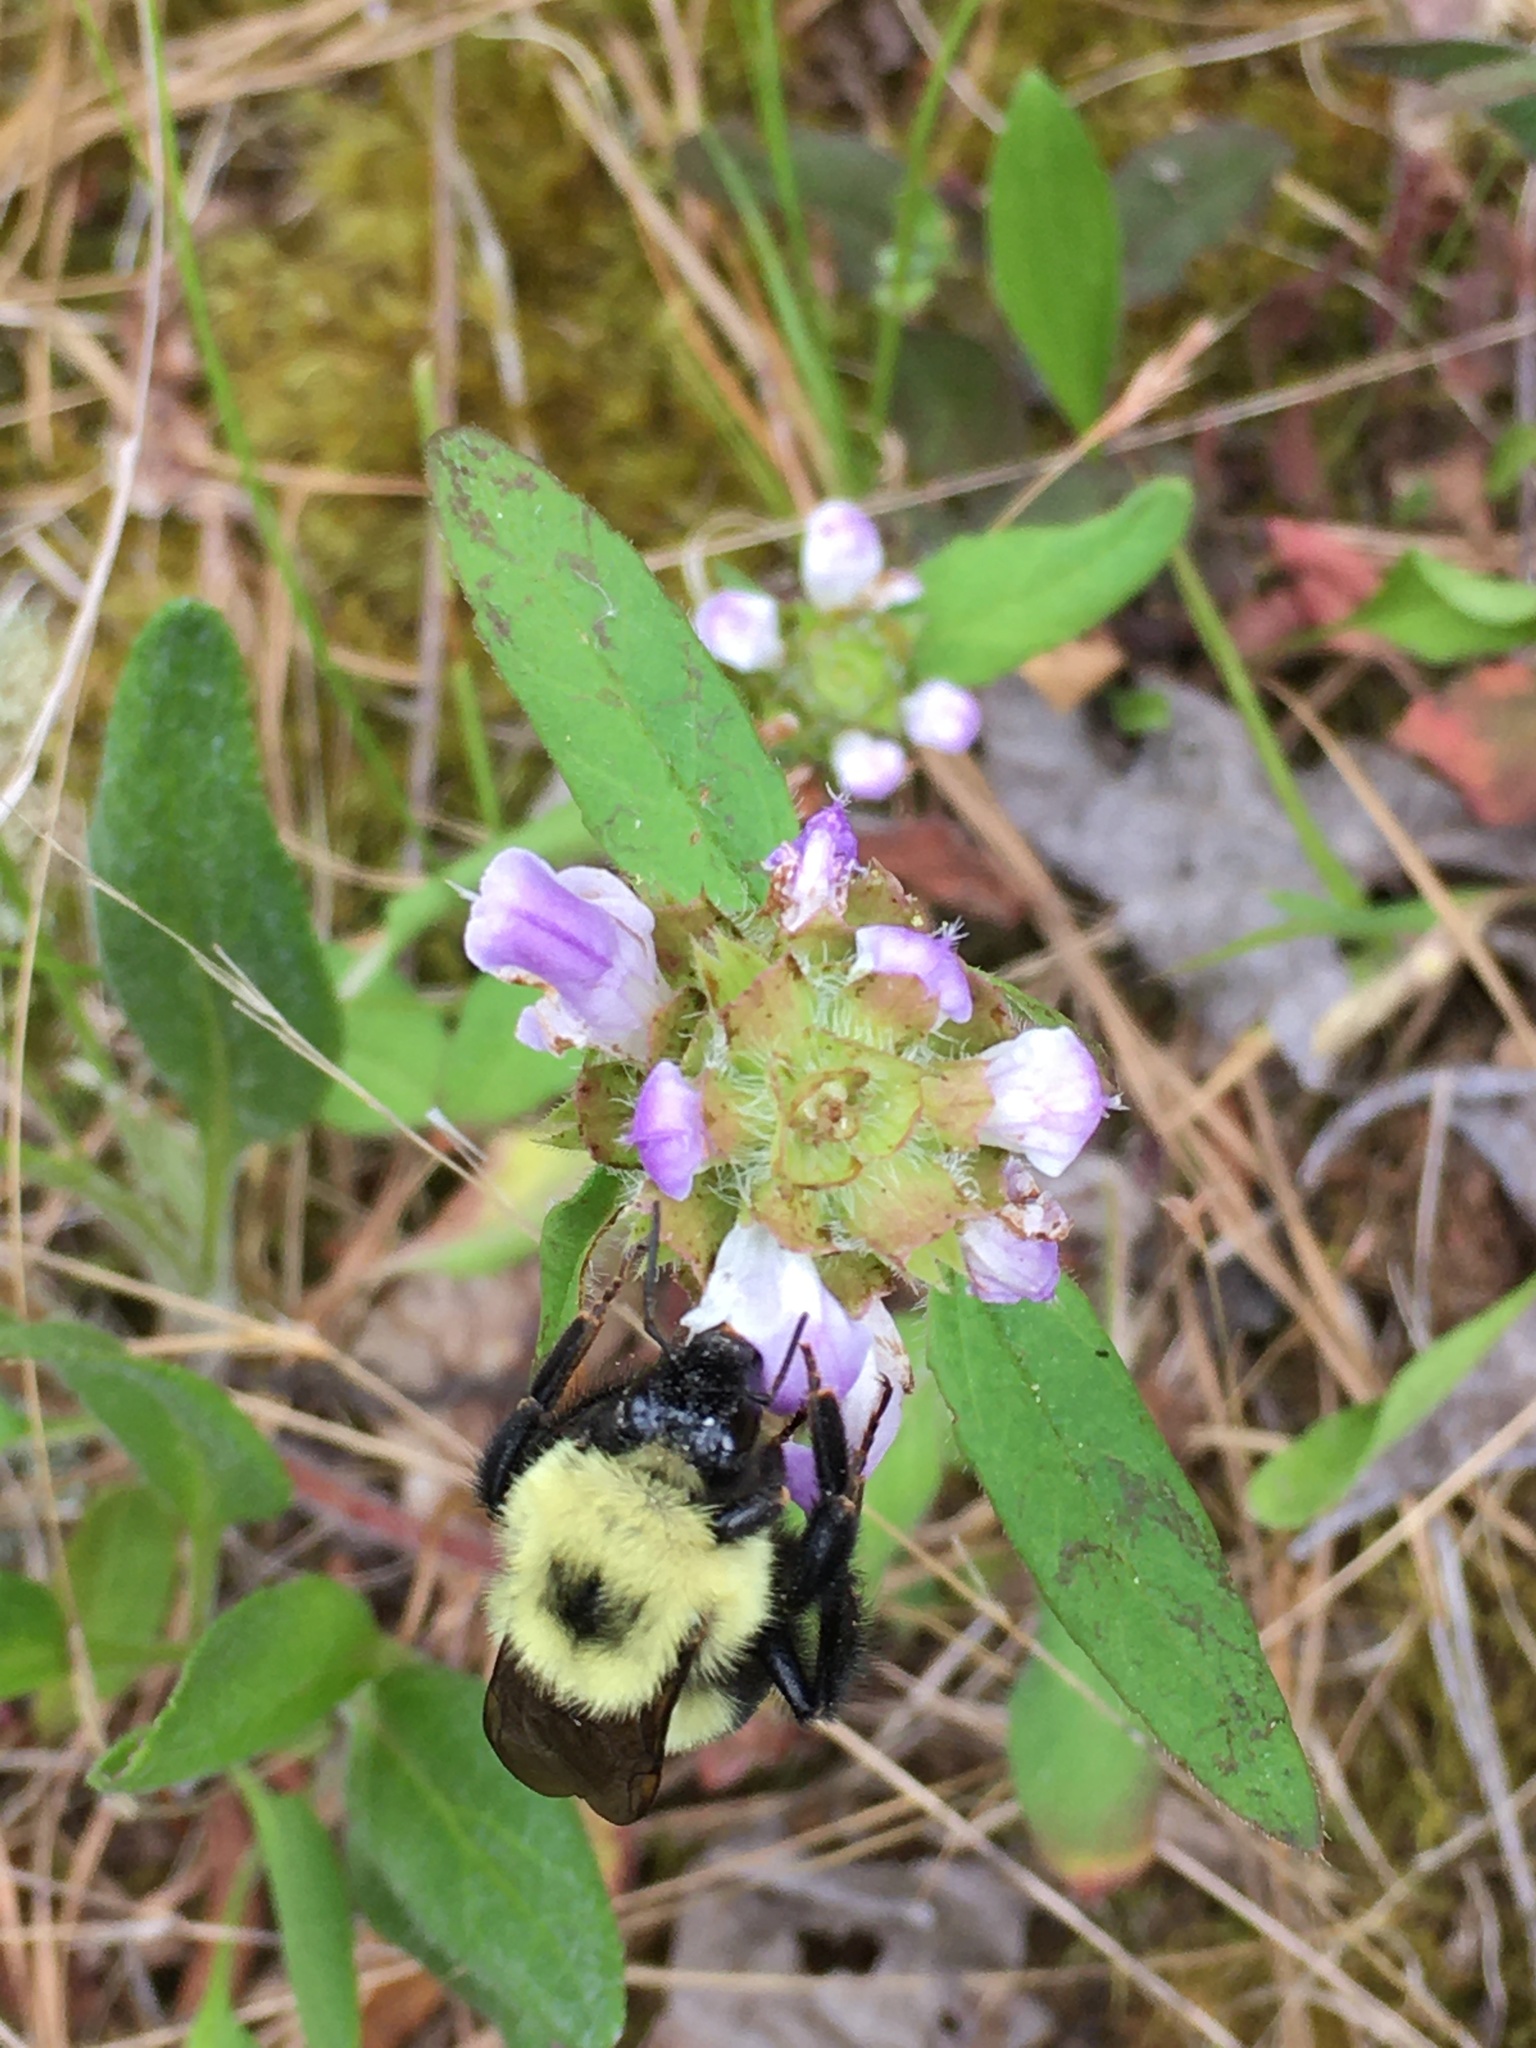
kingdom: Plantae
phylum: Tracheophyta
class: Magnoliopsida
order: Lamiales
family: Lamiaceae
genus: Prunella
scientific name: Prunella vulgaris
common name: Heal-all
